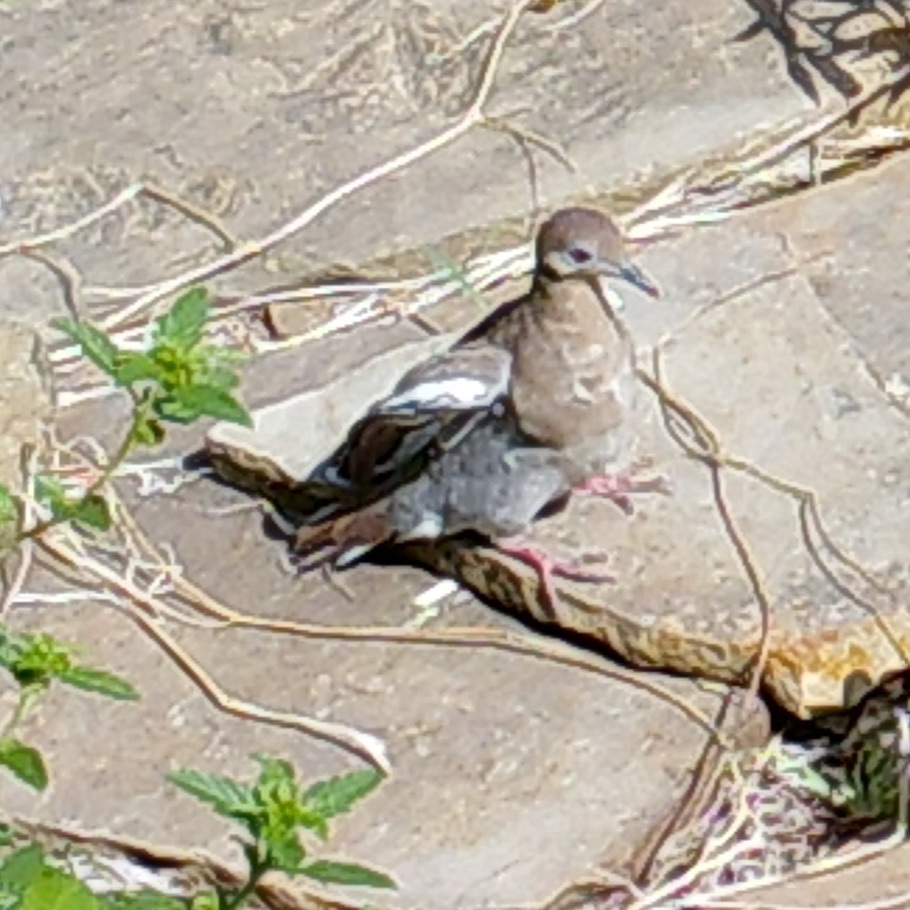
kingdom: Animalia
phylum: Chordata
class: Aves
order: Columbiformes
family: Columbidae
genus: Zenaida
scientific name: Zenaida asiatica
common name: White-winged dove
